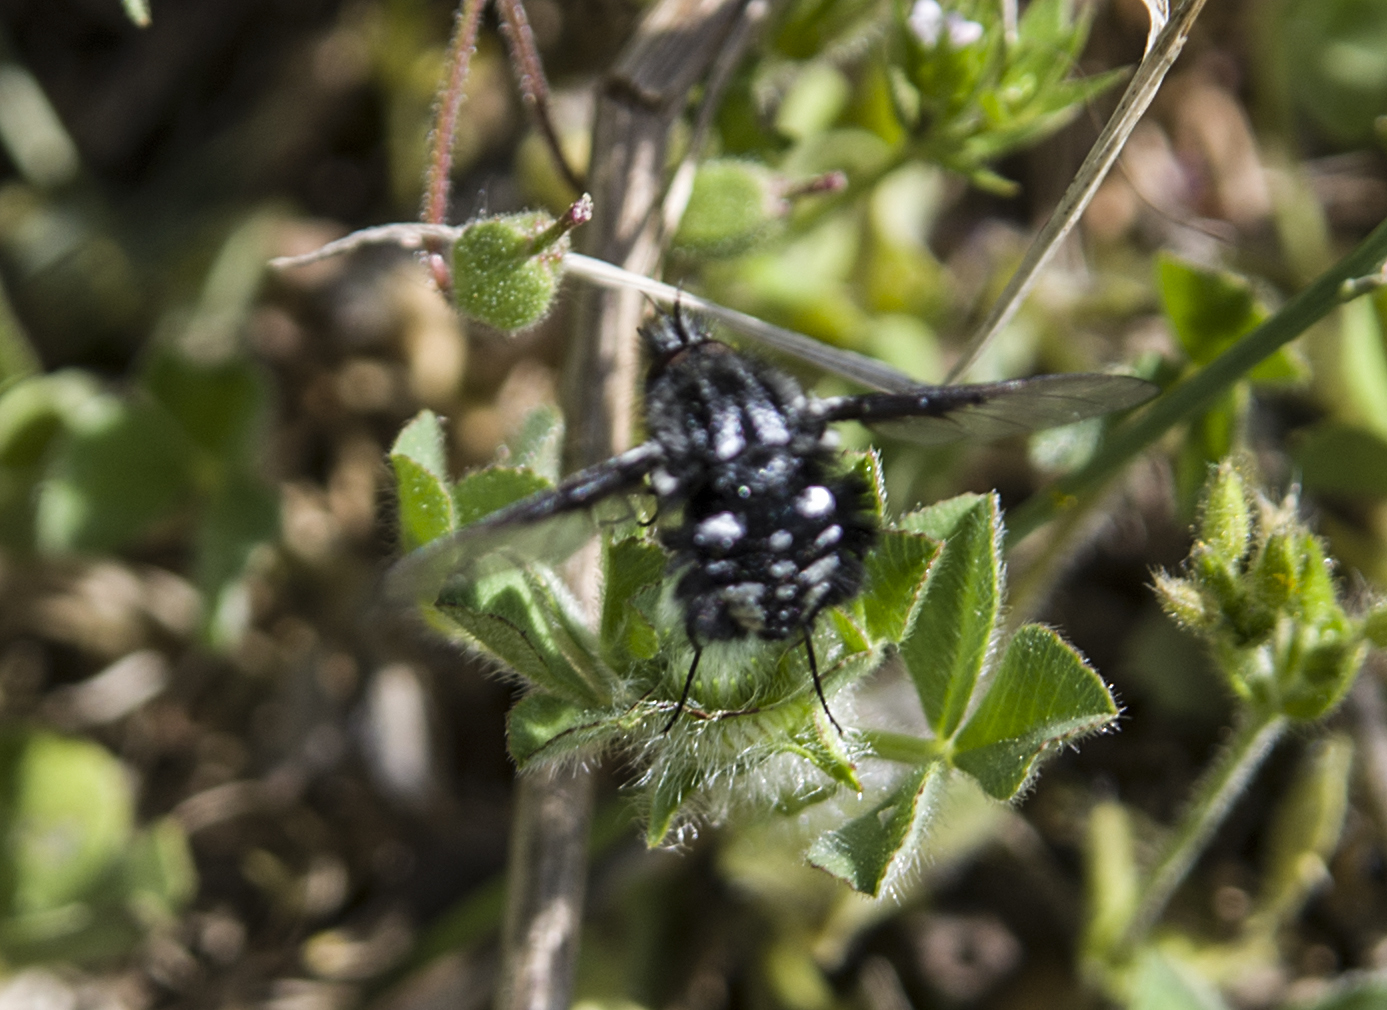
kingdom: Animalia
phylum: Arthropoda
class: Insecta
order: Diptera
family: Bombyliidae
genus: Bombylella
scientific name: Bombylella atra
